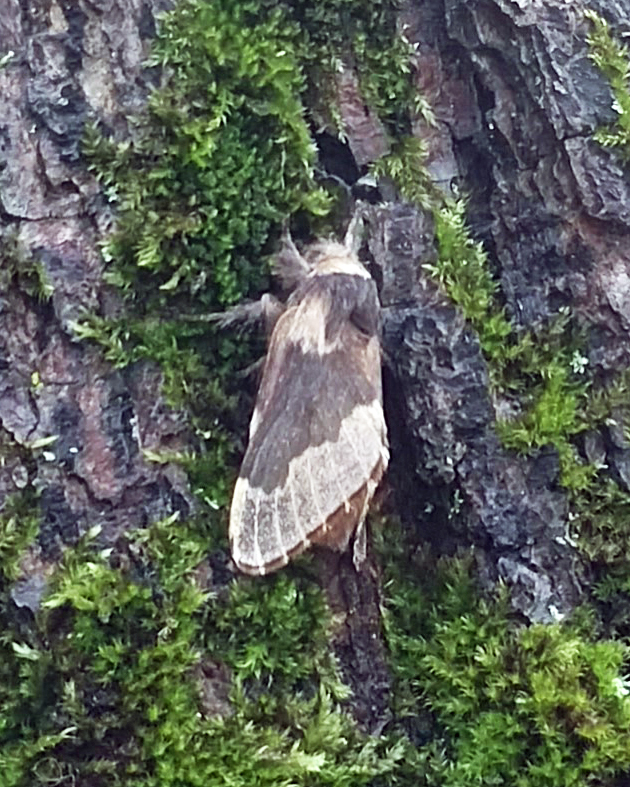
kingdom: Animalia
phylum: Arthropoda
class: Insecta
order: Lepidoptera
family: Lasiocampidae
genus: Poecilocampa
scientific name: Poecilocampa populi
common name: December moth
